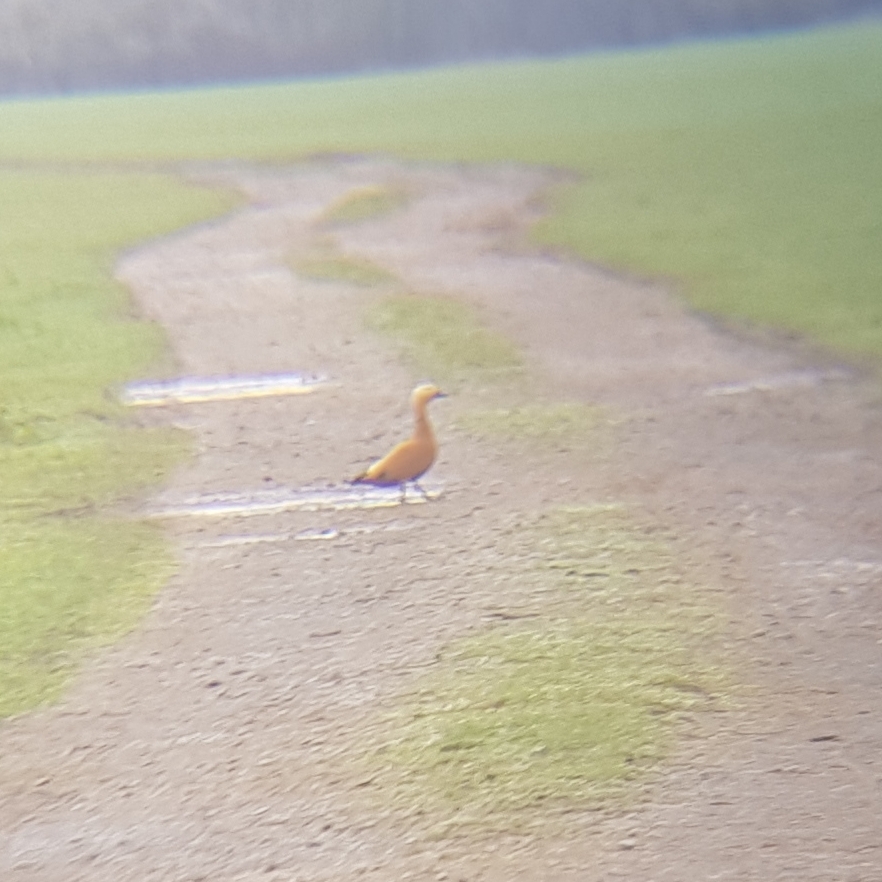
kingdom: Animalia
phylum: Chordata
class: Aves
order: Anseriformes
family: Anatidae
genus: Tadorna
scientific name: Tadorna ferruginea
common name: Ruddy shelduck
